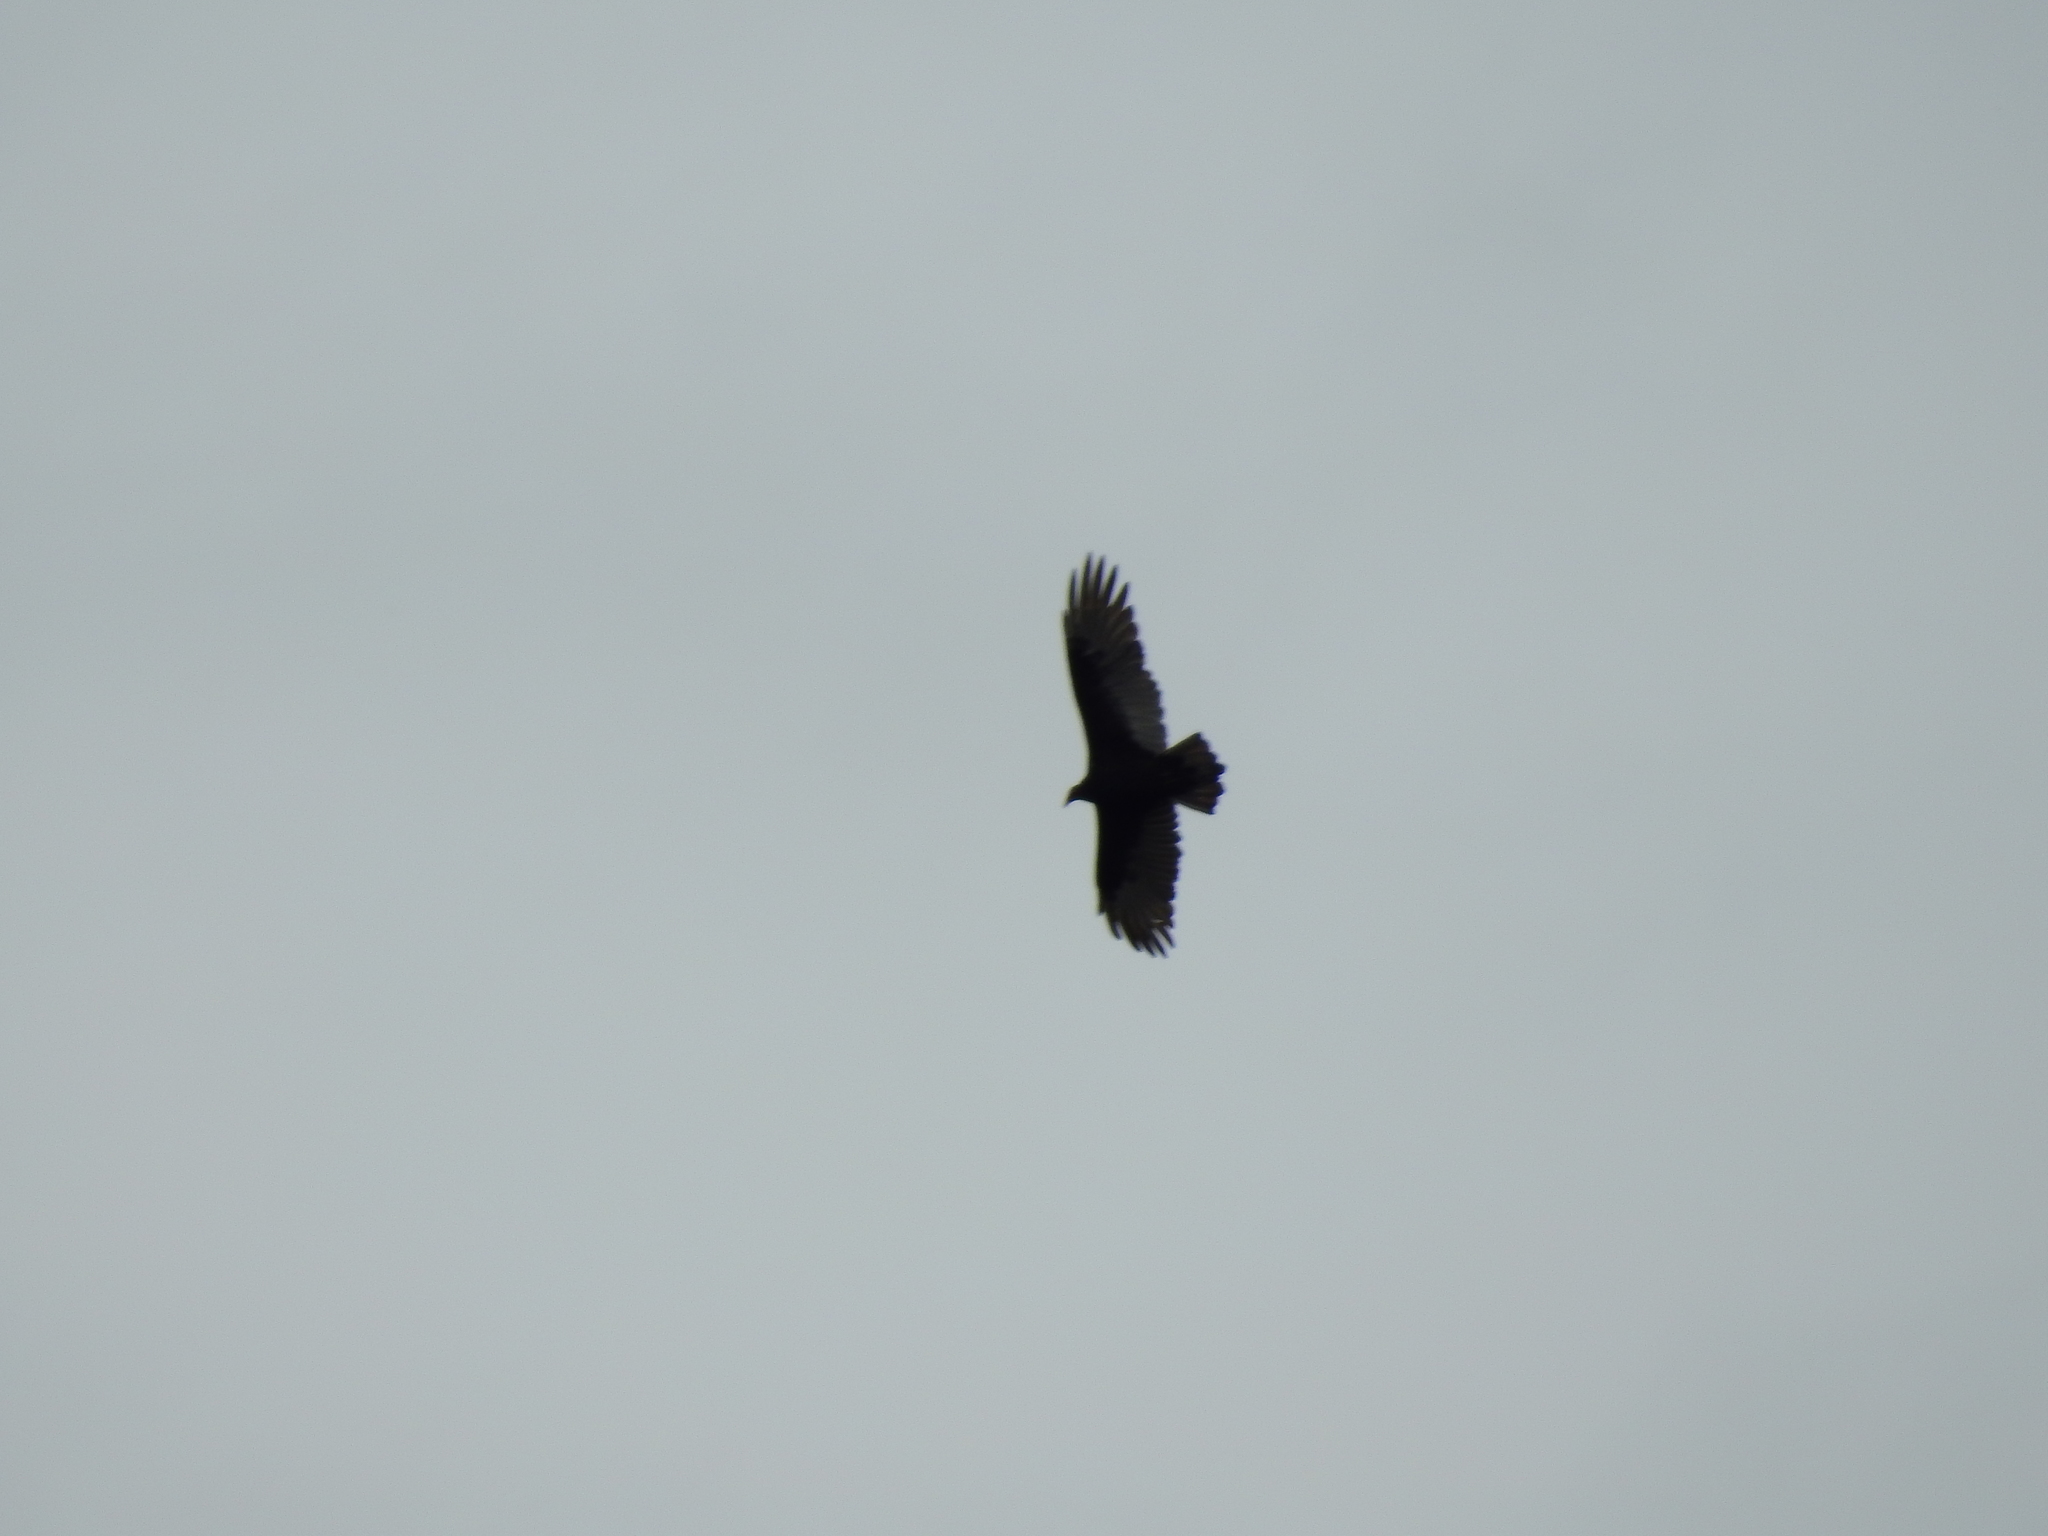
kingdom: Animalia
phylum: Chordata
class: Aves
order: Accipitriformes
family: Cathartidae
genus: Cathartes
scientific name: Cathartes aura
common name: Turkey vulture
